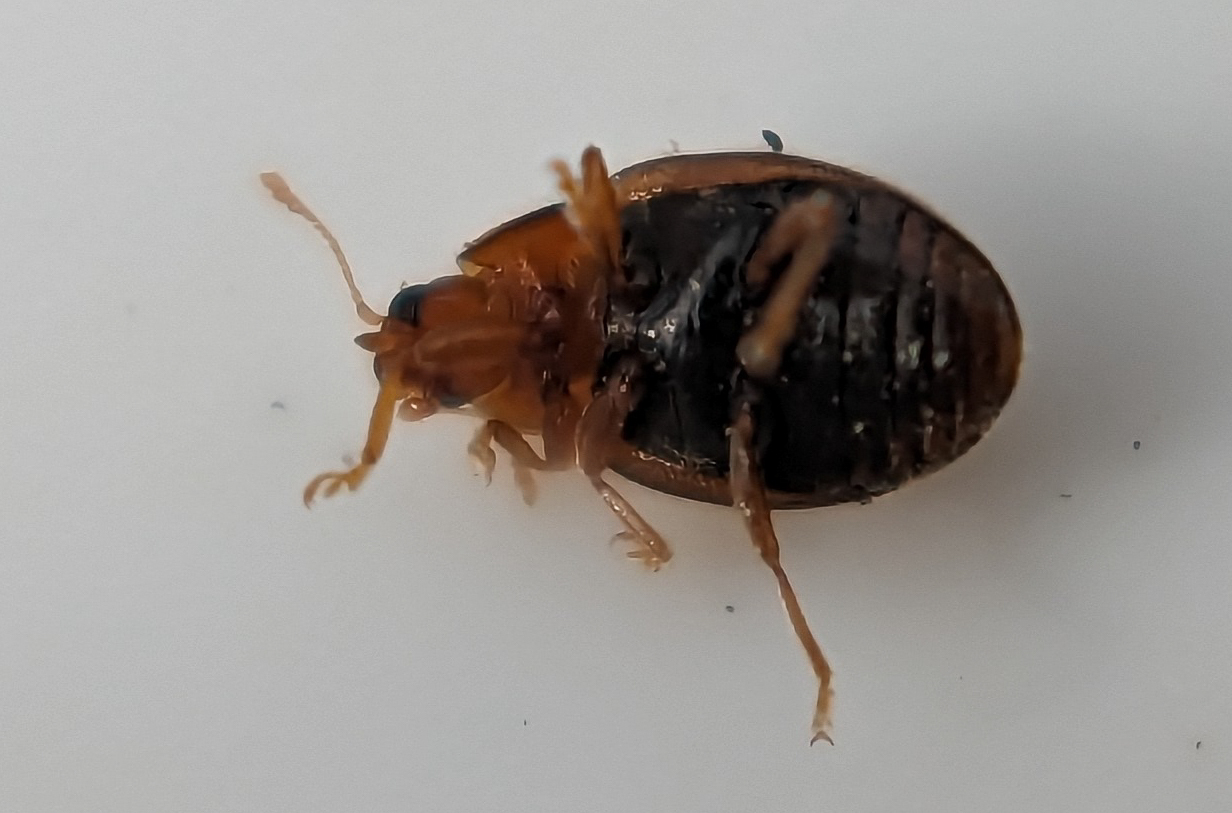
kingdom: Animalia
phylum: Arthropoda
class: Insecta
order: Coleoptera
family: Coccinellidae
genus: Rhyzobius
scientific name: Rhyzobius chrysomeloides
